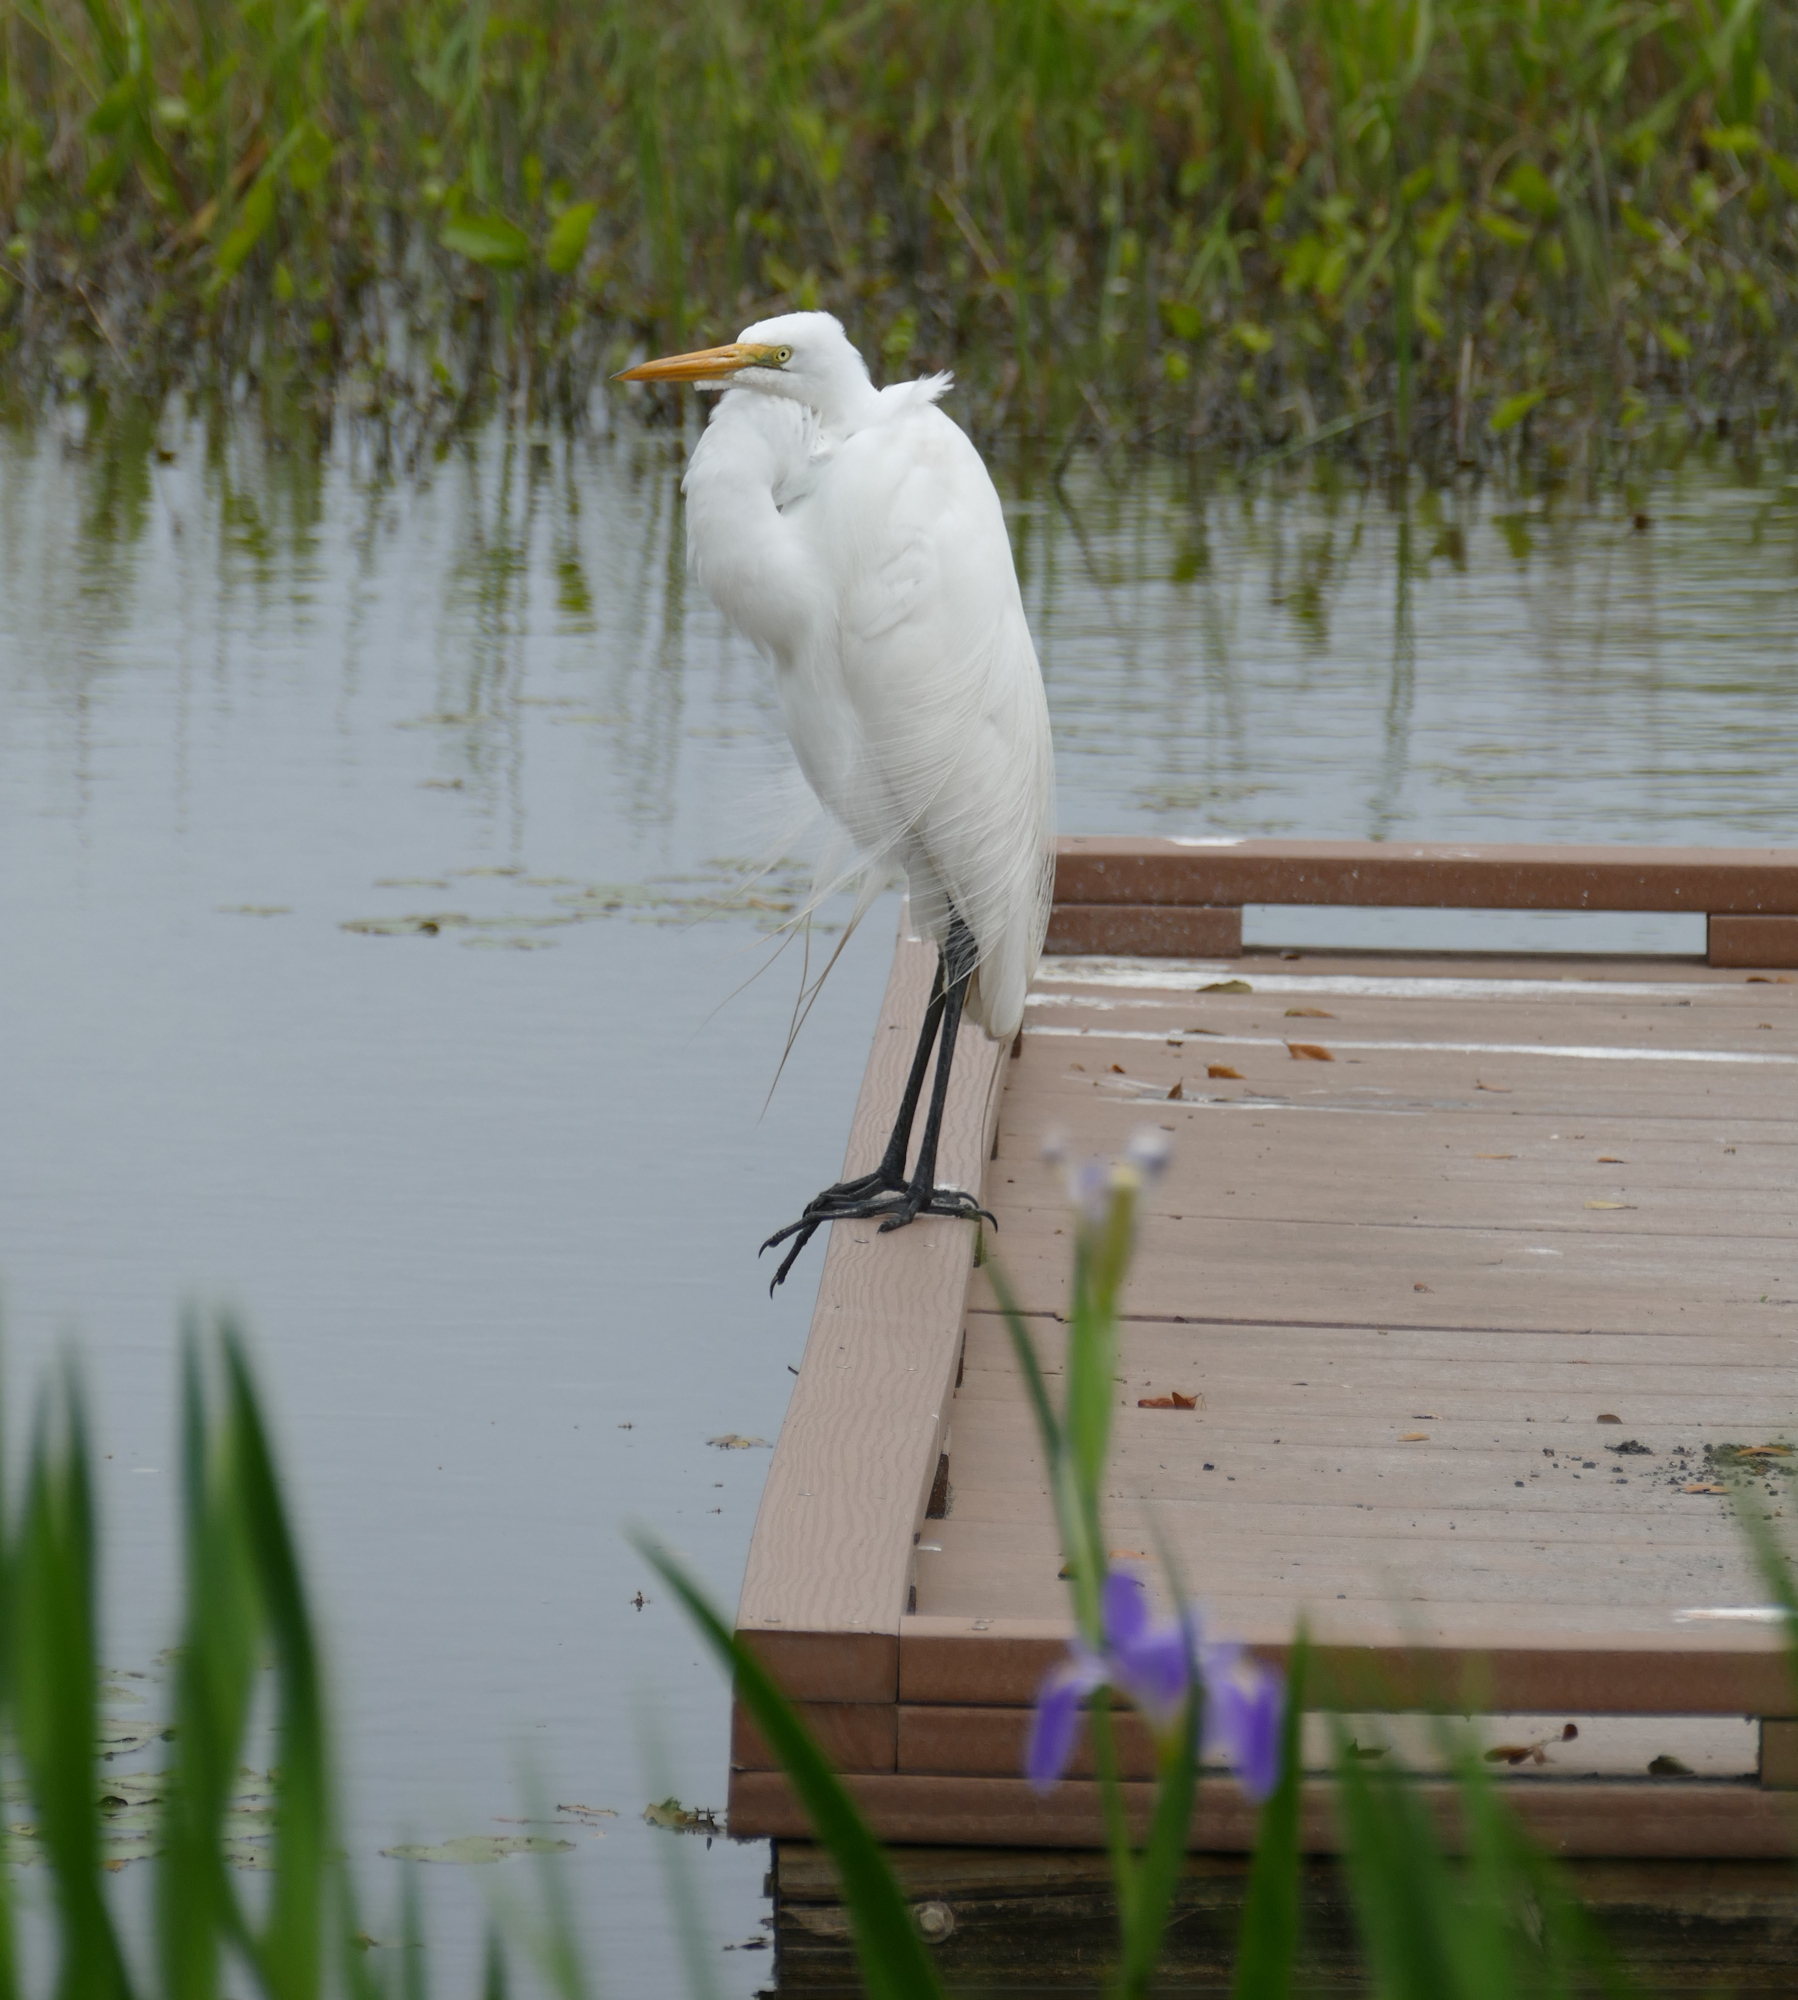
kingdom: Animalia
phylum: Chordata
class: Aves
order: Pelecaniformes
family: Ardeidae
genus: Ardea
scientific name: Ardea alba
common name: Great egret
